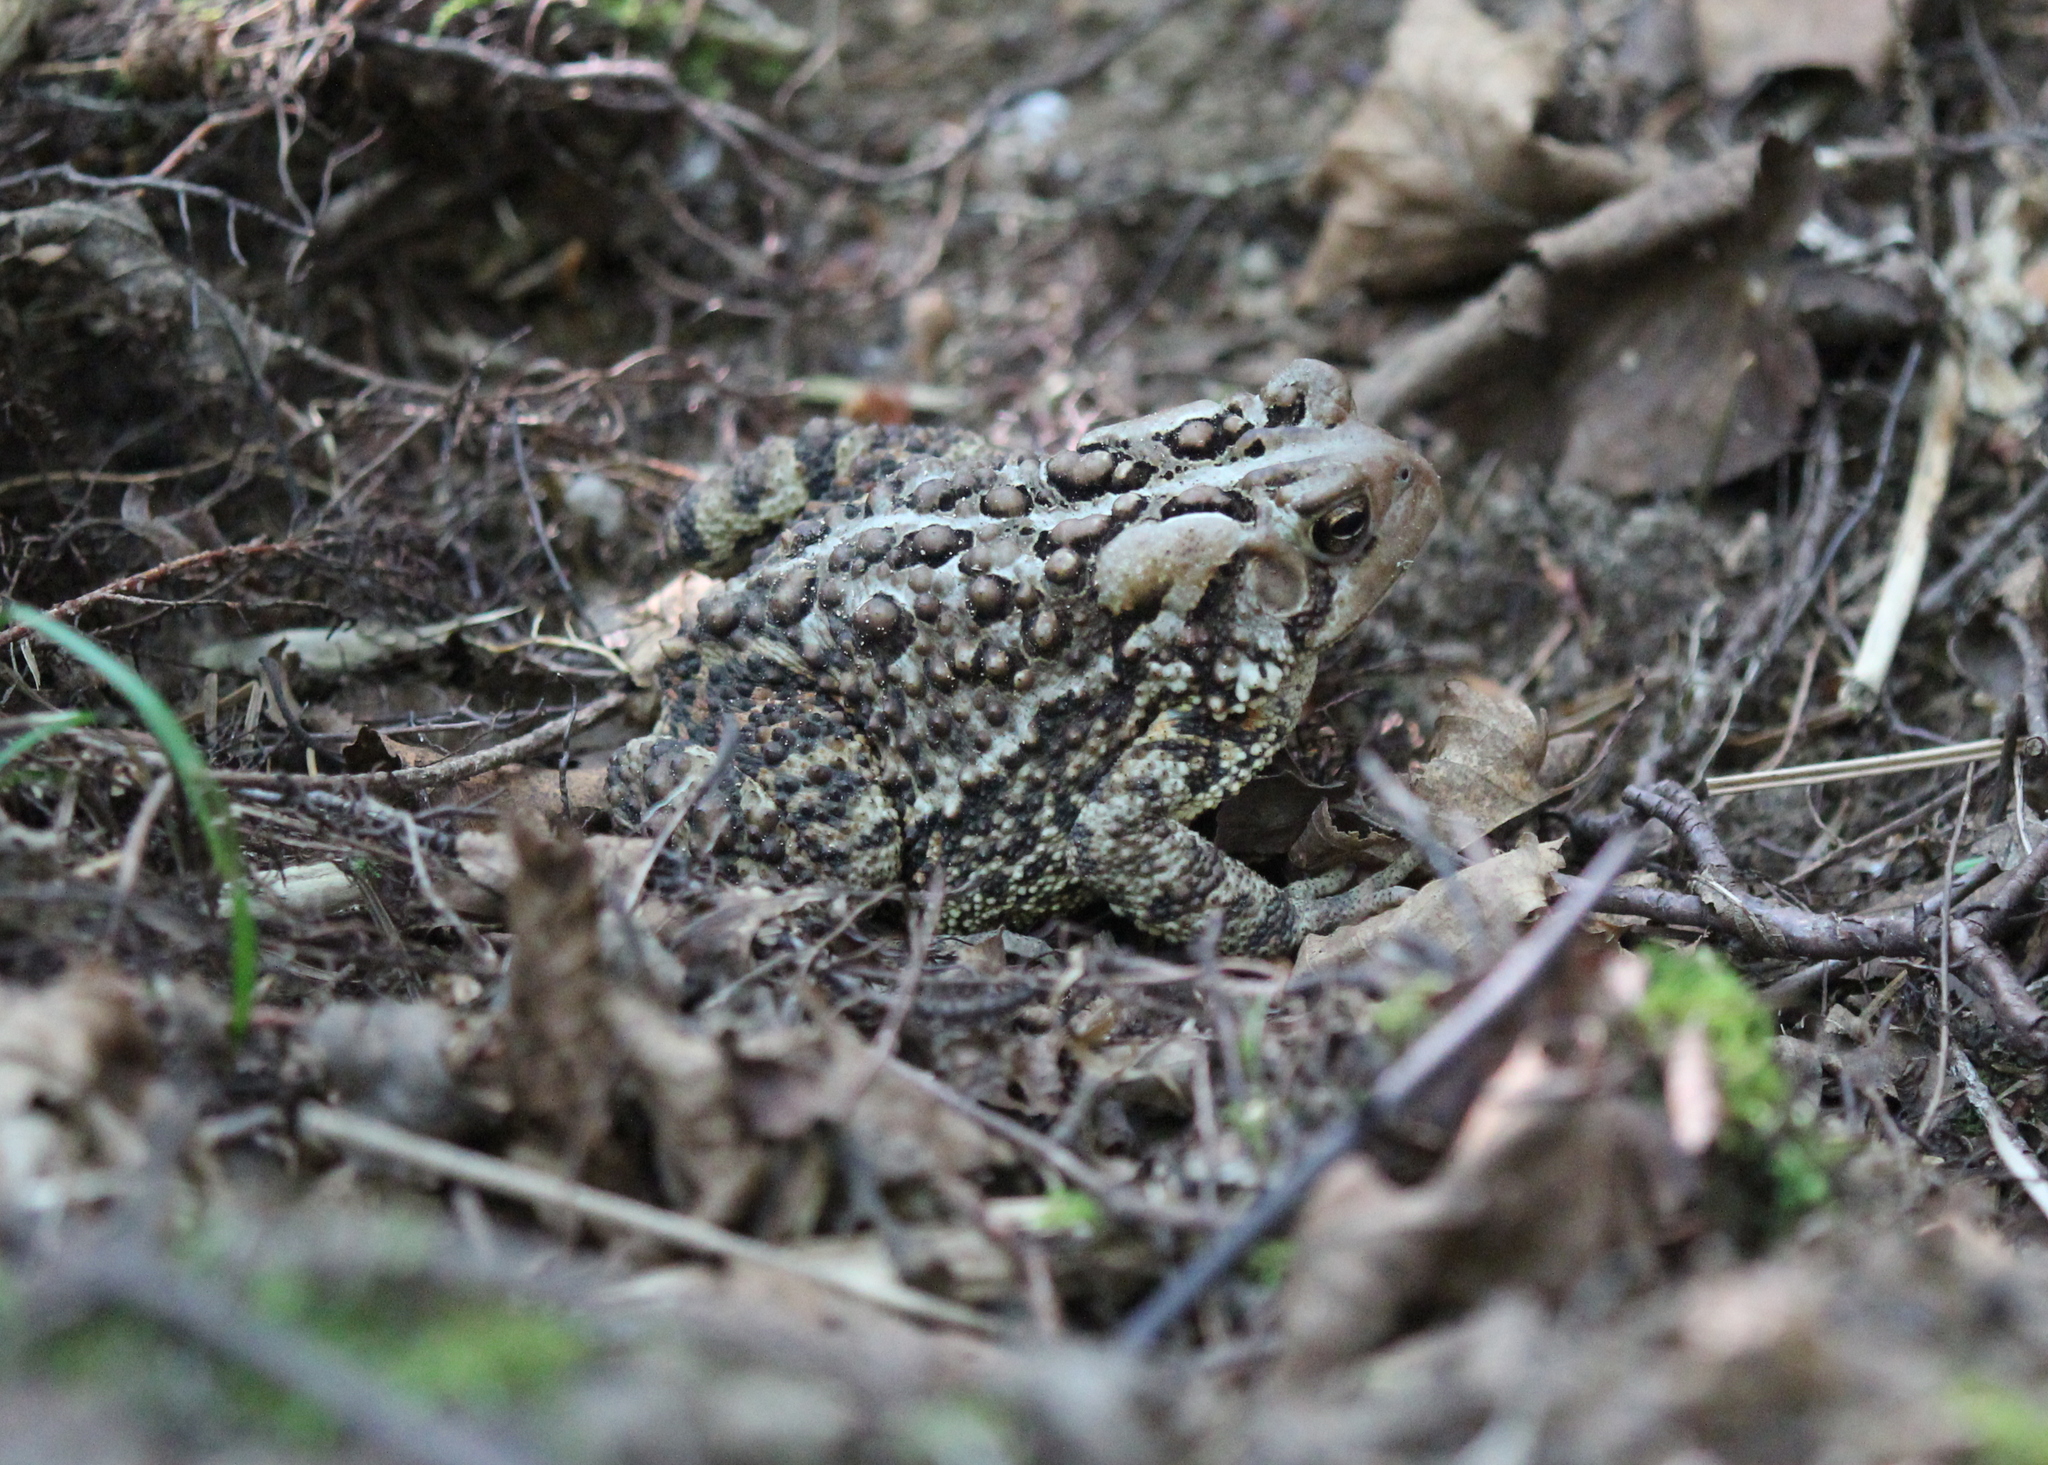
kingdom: Animalia
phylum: Chordata
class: Amphibia
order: Anura
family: Bufonidae
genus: Anaxyrus
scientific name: Anaxyrus americanus
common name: American toad
